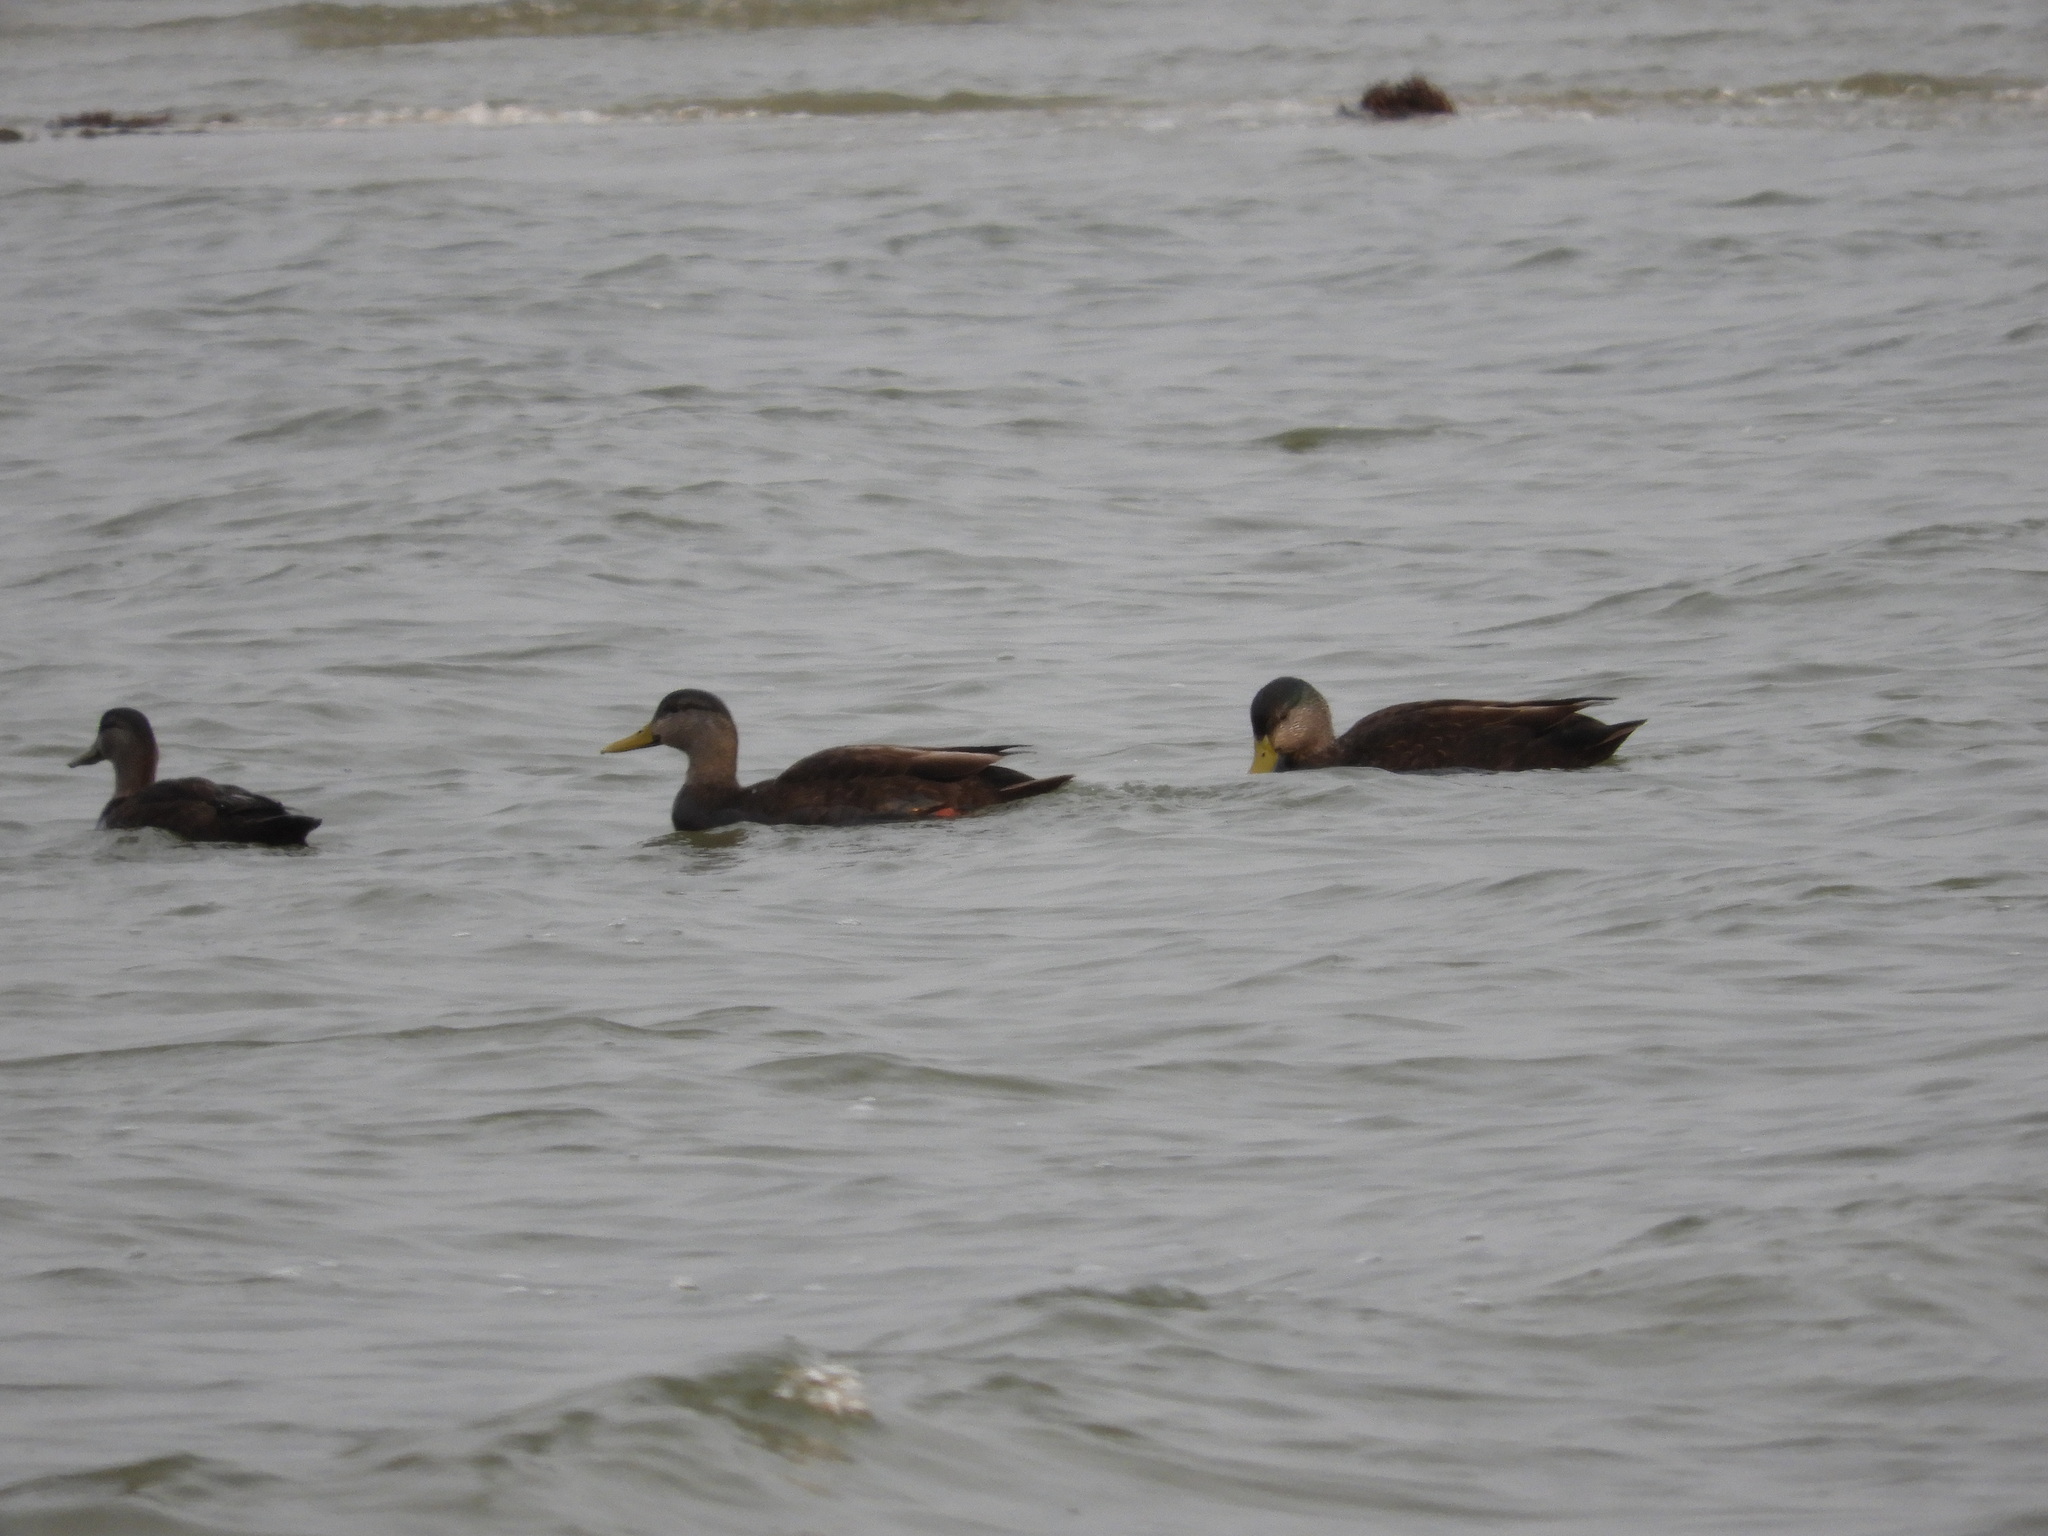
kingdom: Animalia
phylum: Chordata
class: Aves
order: Anseriformes
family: Anatidae
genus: Anas
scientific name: Anas rubripes
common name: American black duck
